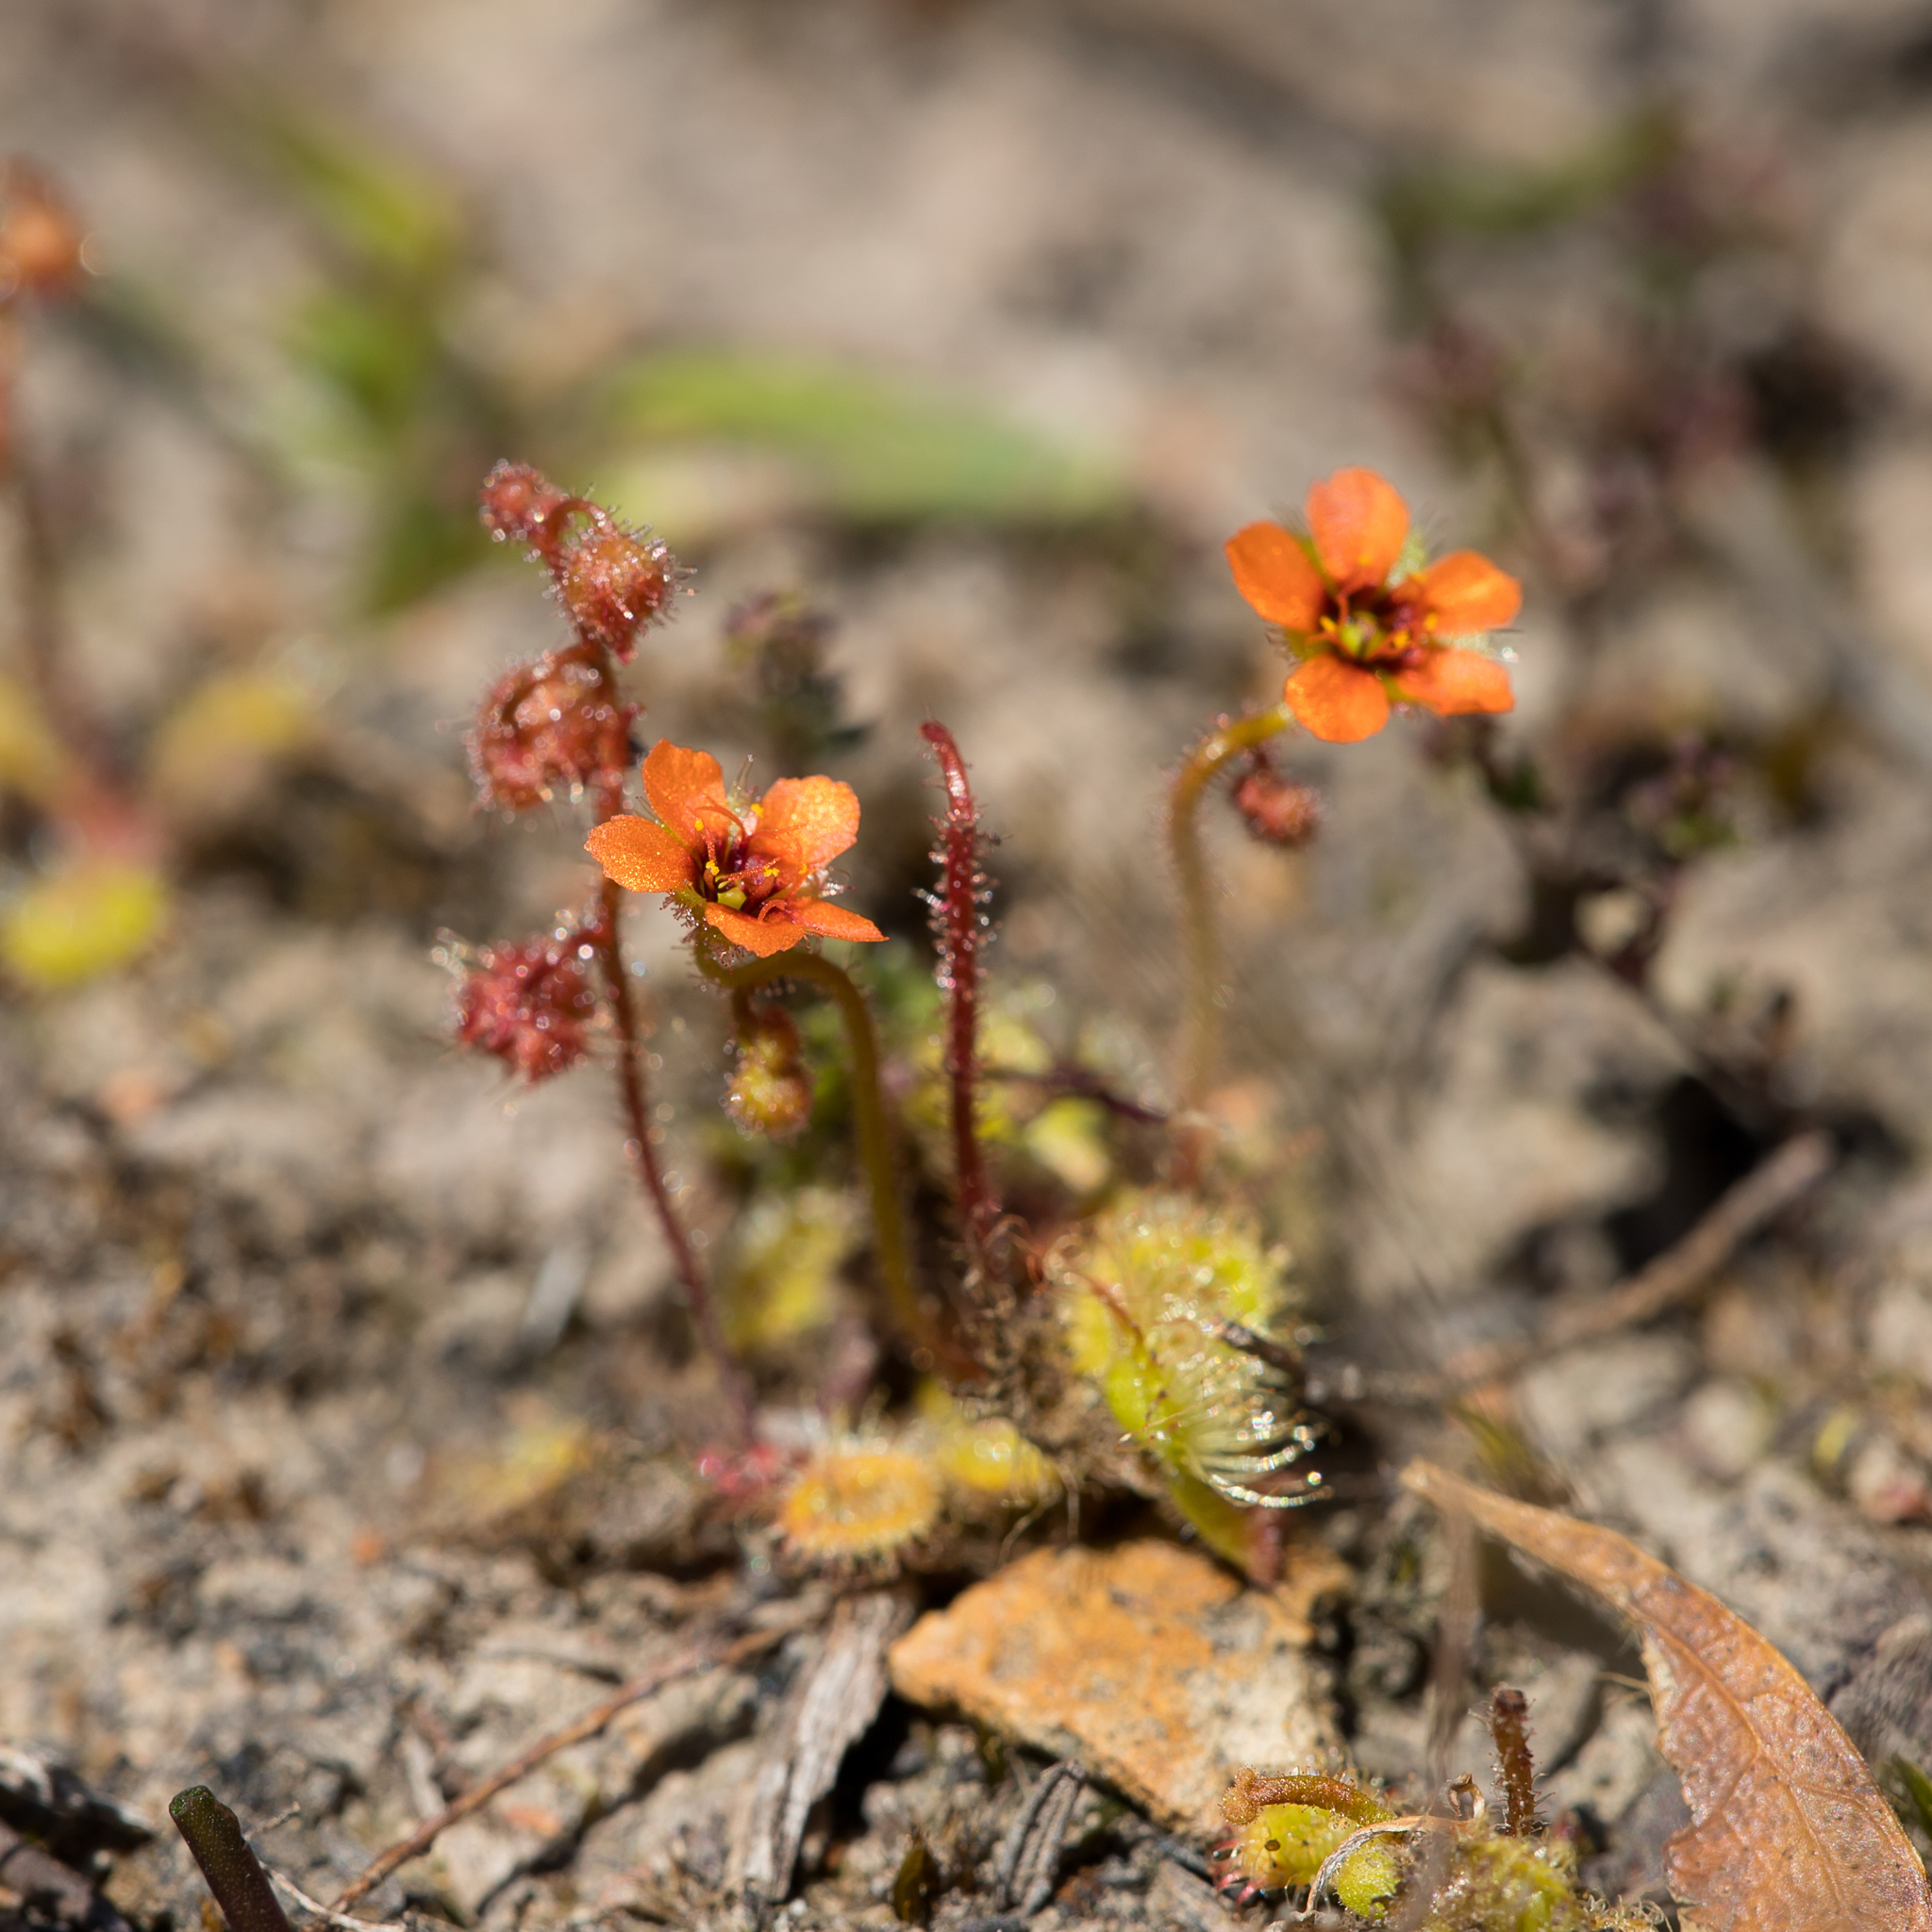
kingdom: Plantae
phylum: Tracheophyta
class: Magnoliopsida
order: Caryophyllales
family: Droseraceae
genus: Drosera
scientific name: Drosera glanduligera
